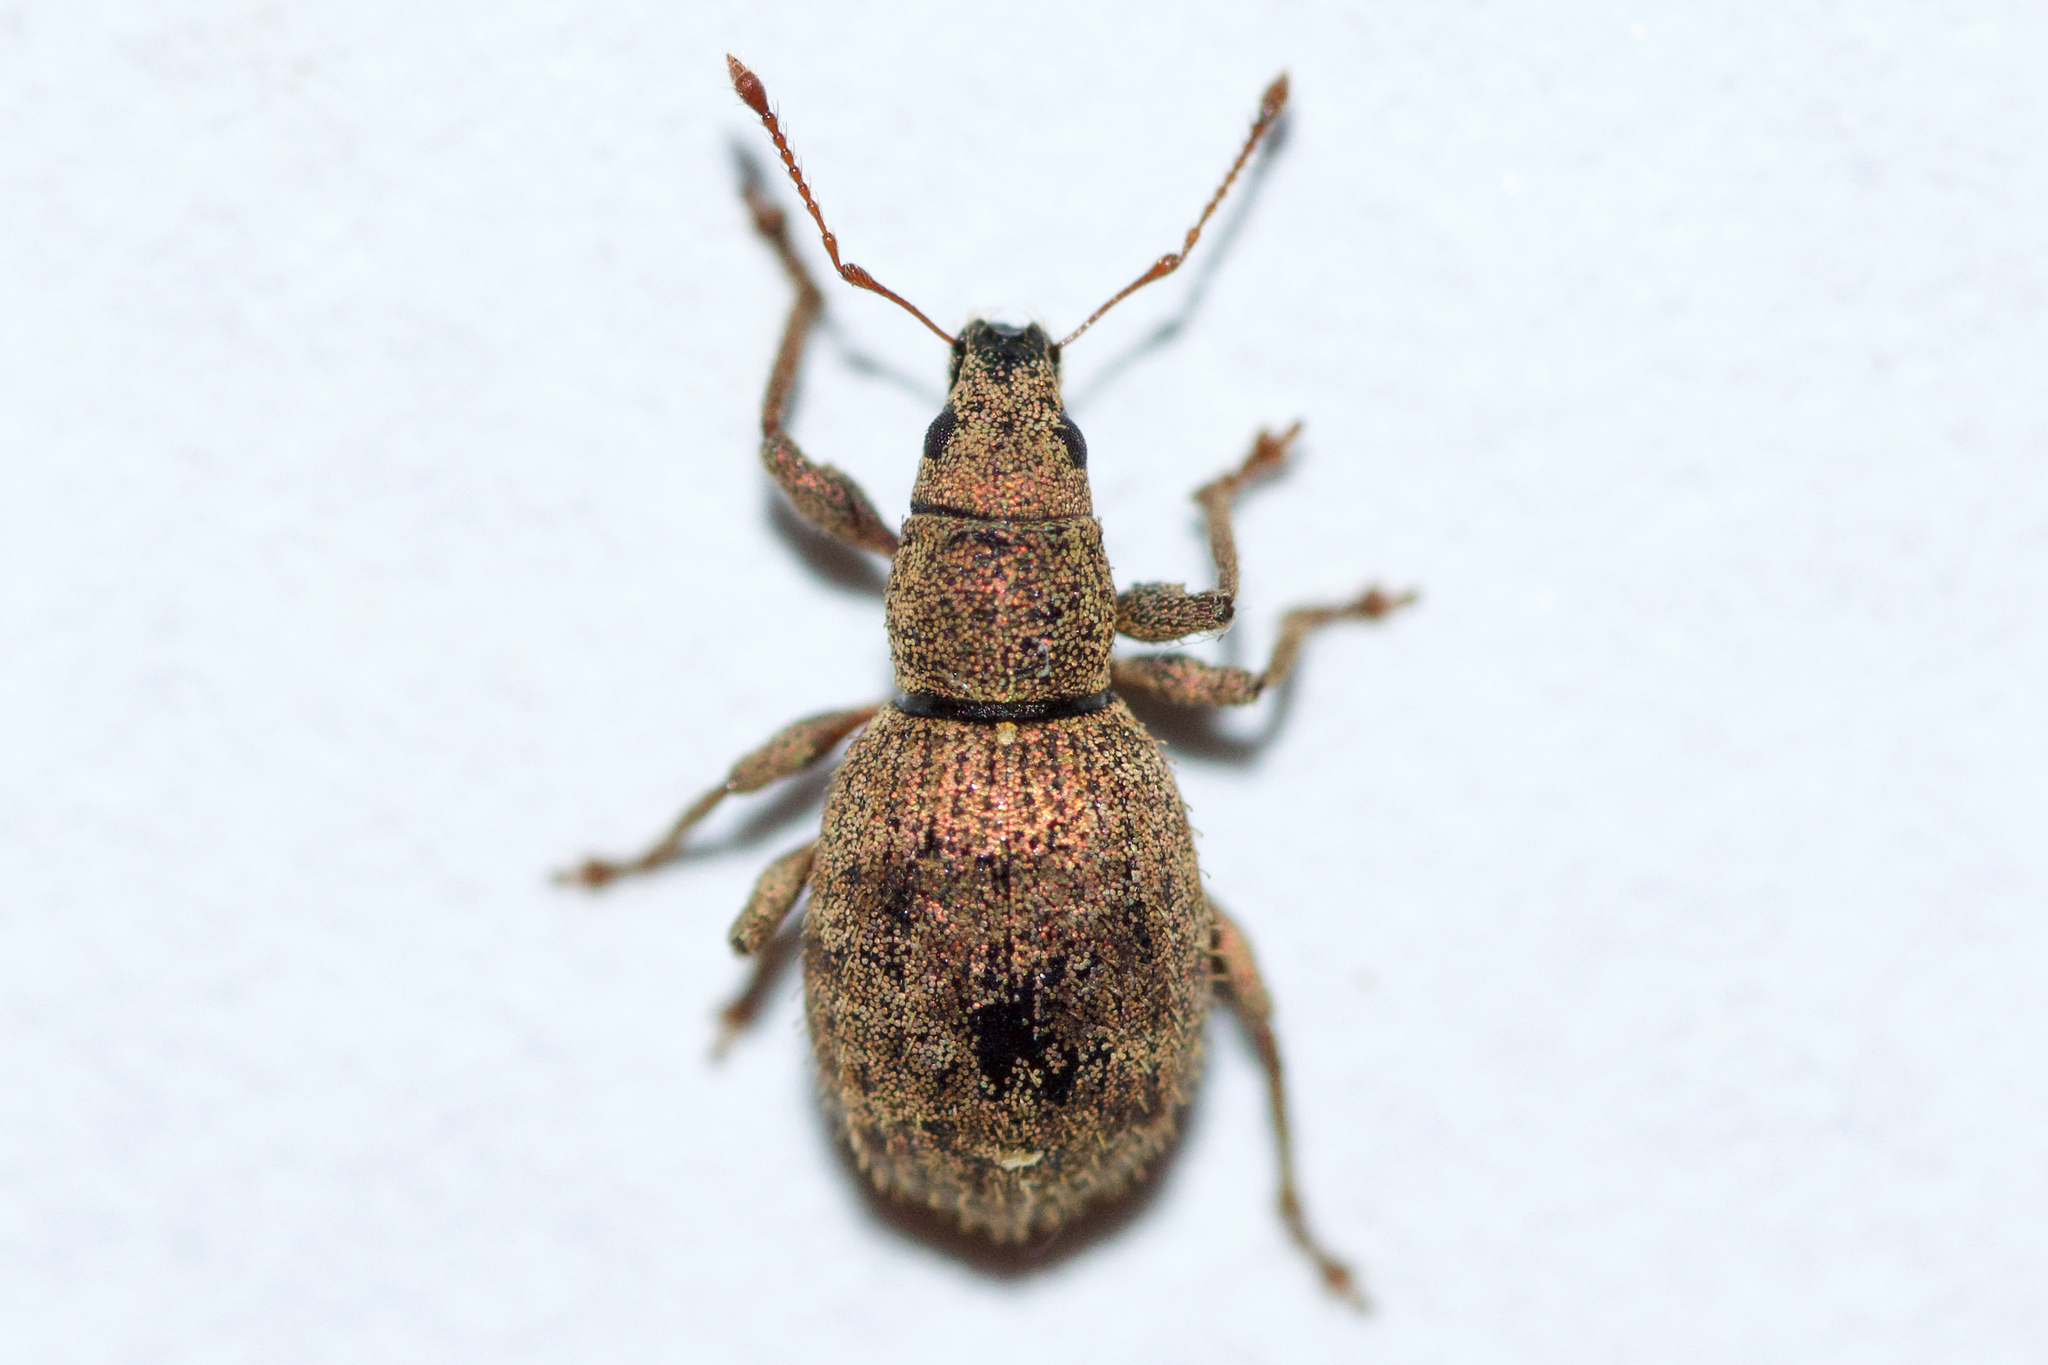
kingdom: Animalia
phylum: Arthropoda
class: Insecta
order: Coleoptera
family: Curculionidae
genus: Sciaphilus
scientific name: Sciaphilus asperatus
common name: Weevil
